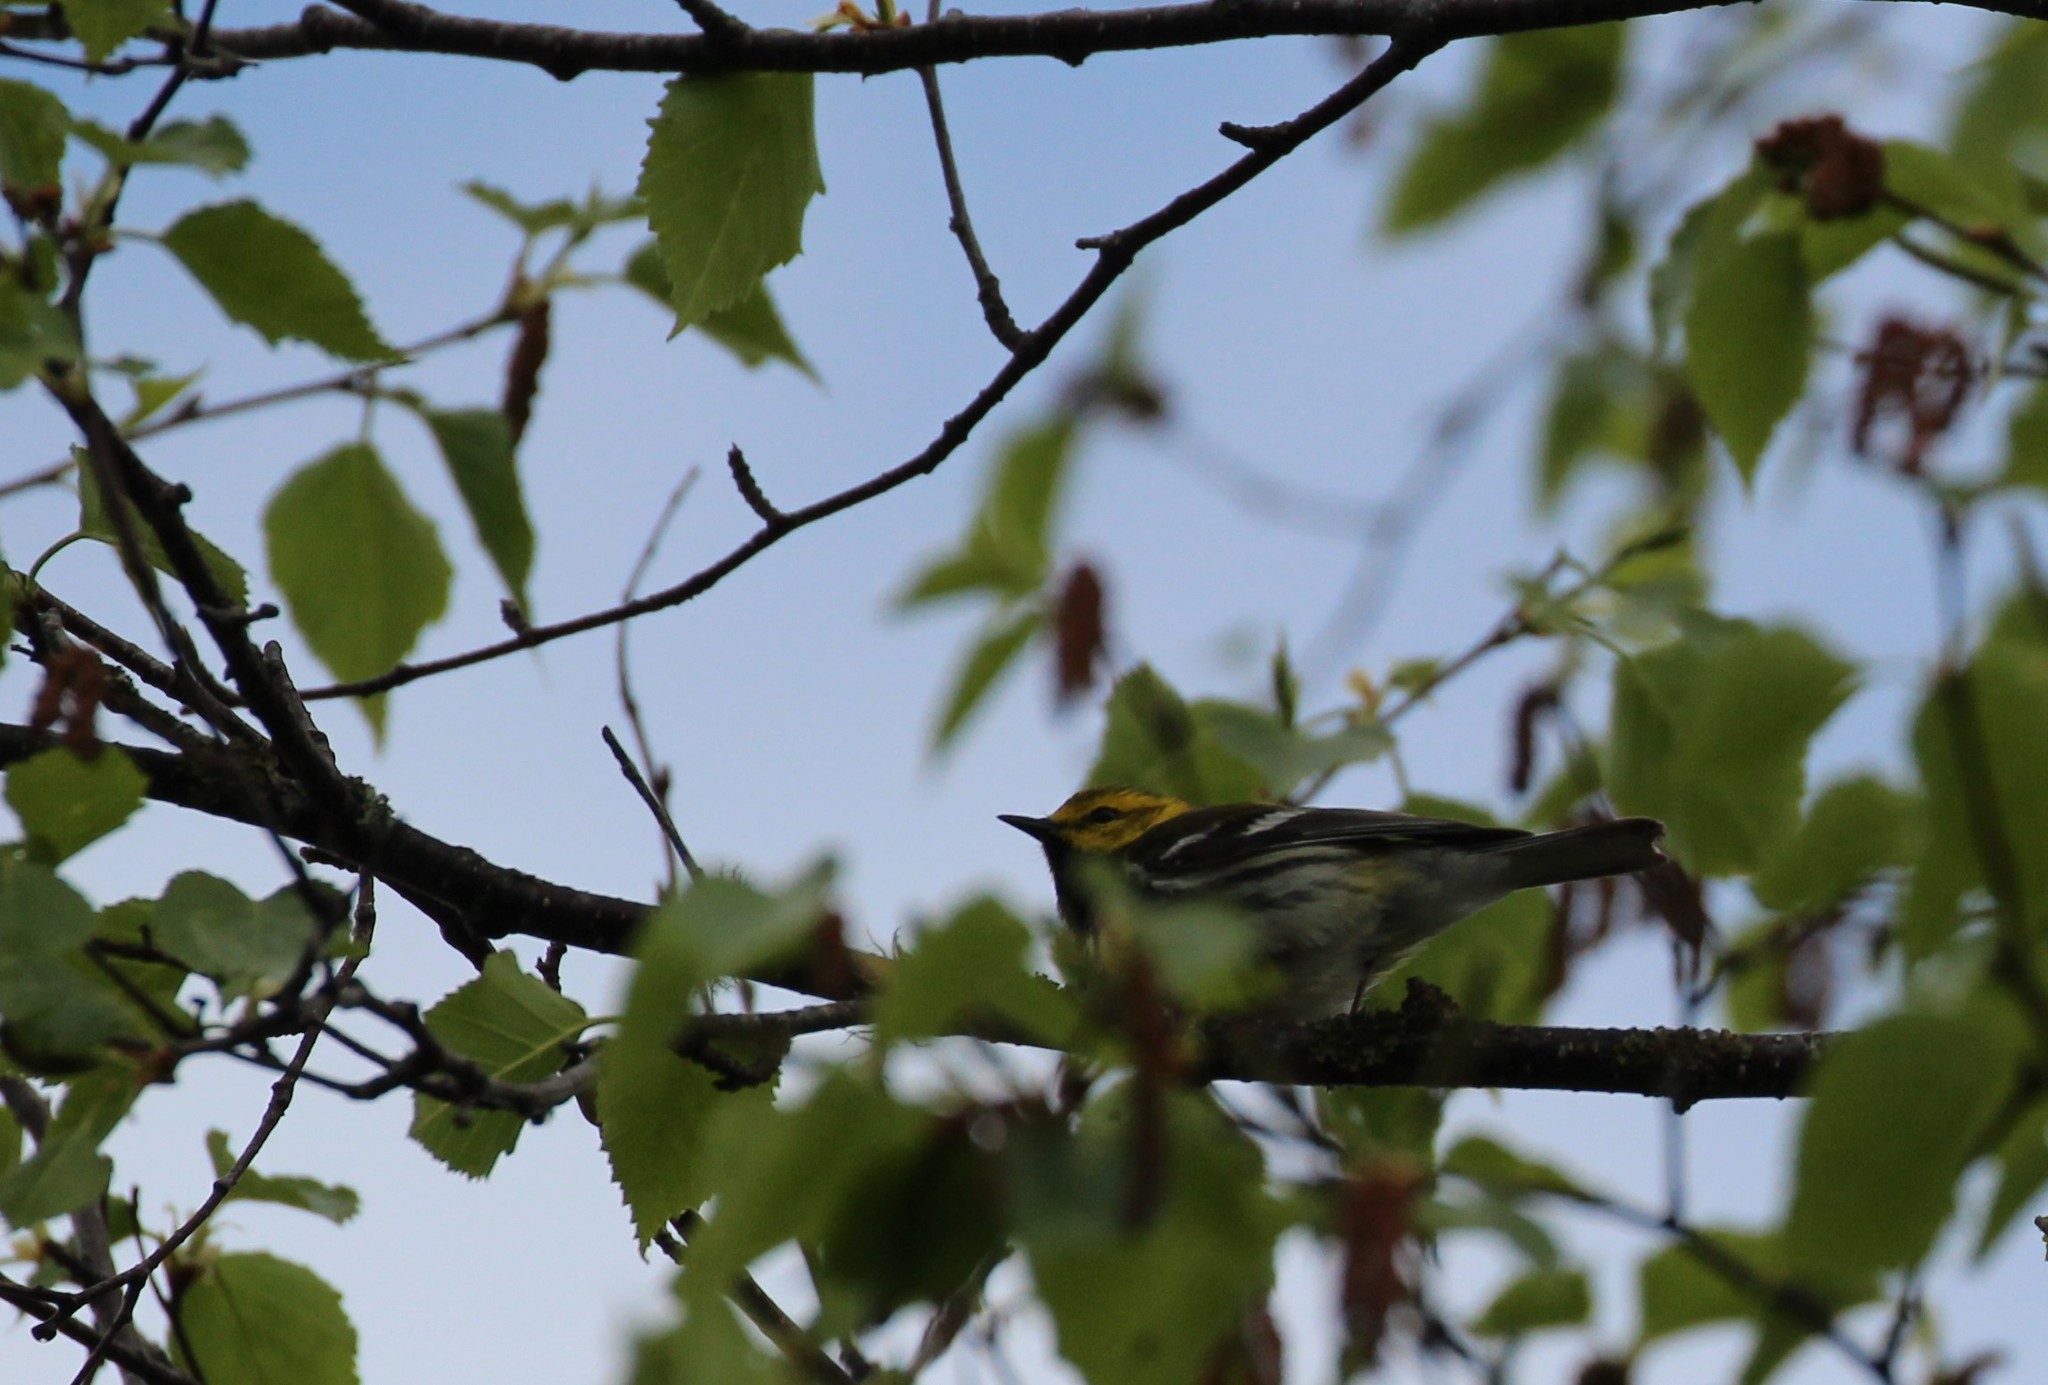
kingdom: Animalia
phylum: Chordata
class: Aves
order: Passeriformes
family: Parulidae
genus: Setophaga
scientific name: Setophaga virens
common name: Black-throated green warbler
